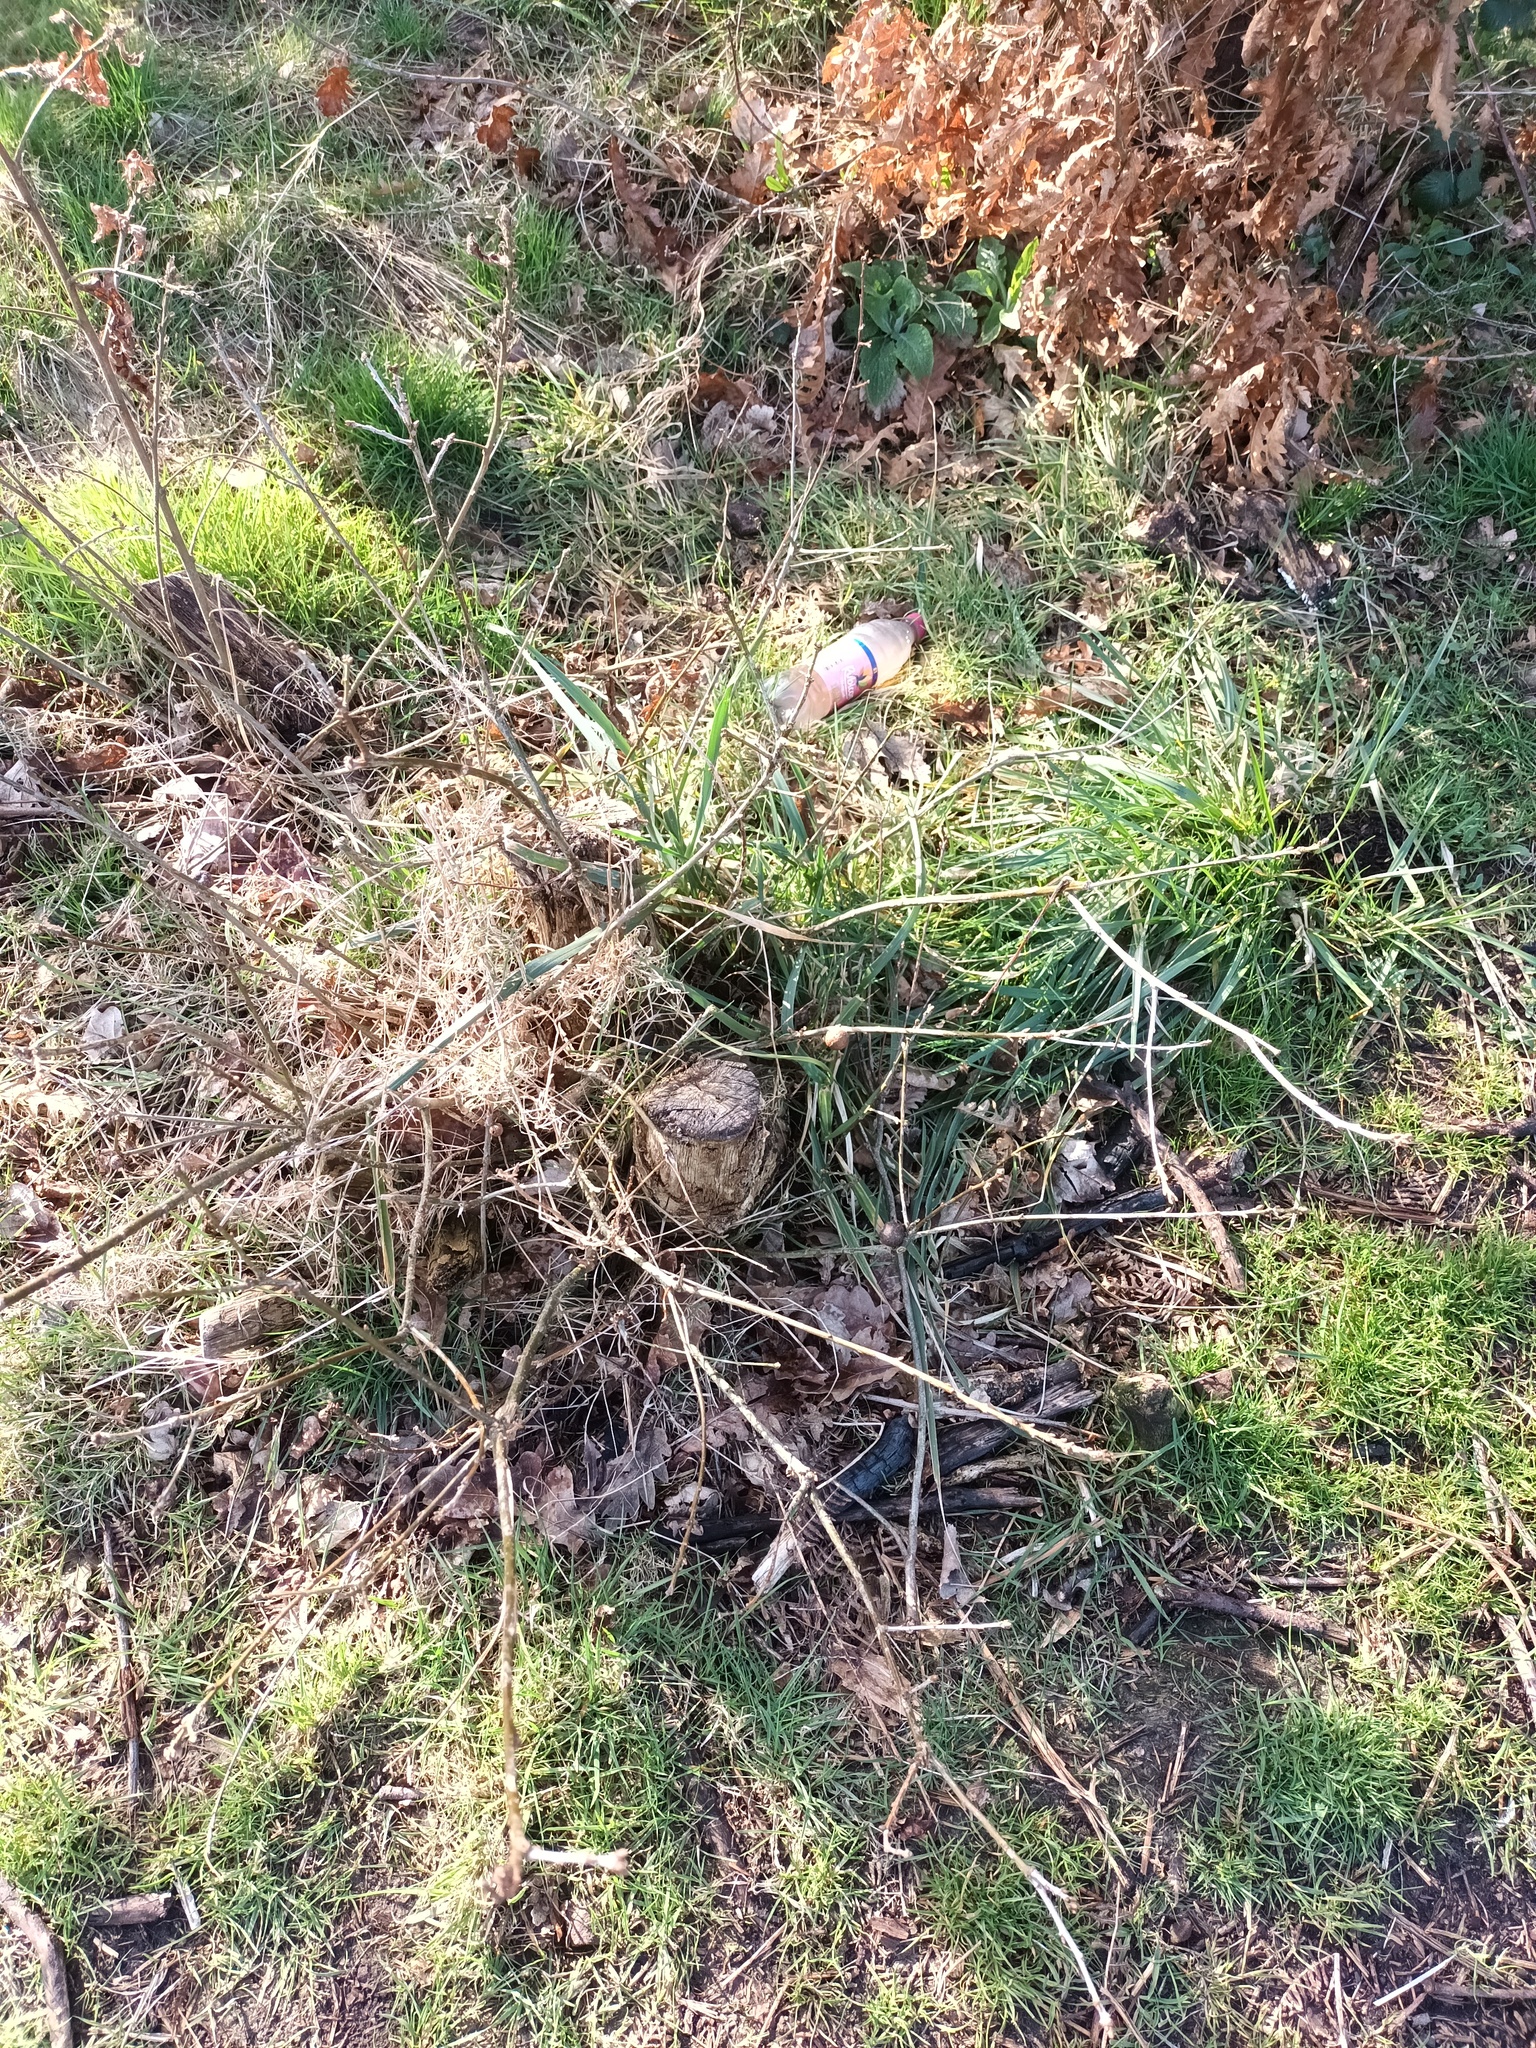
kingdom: Animalia
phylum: Arthropoda
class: Insecta
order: Hymenoptera
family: Cynipidae
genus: Andricus
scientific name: Andricus kollari
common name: Marble gall
